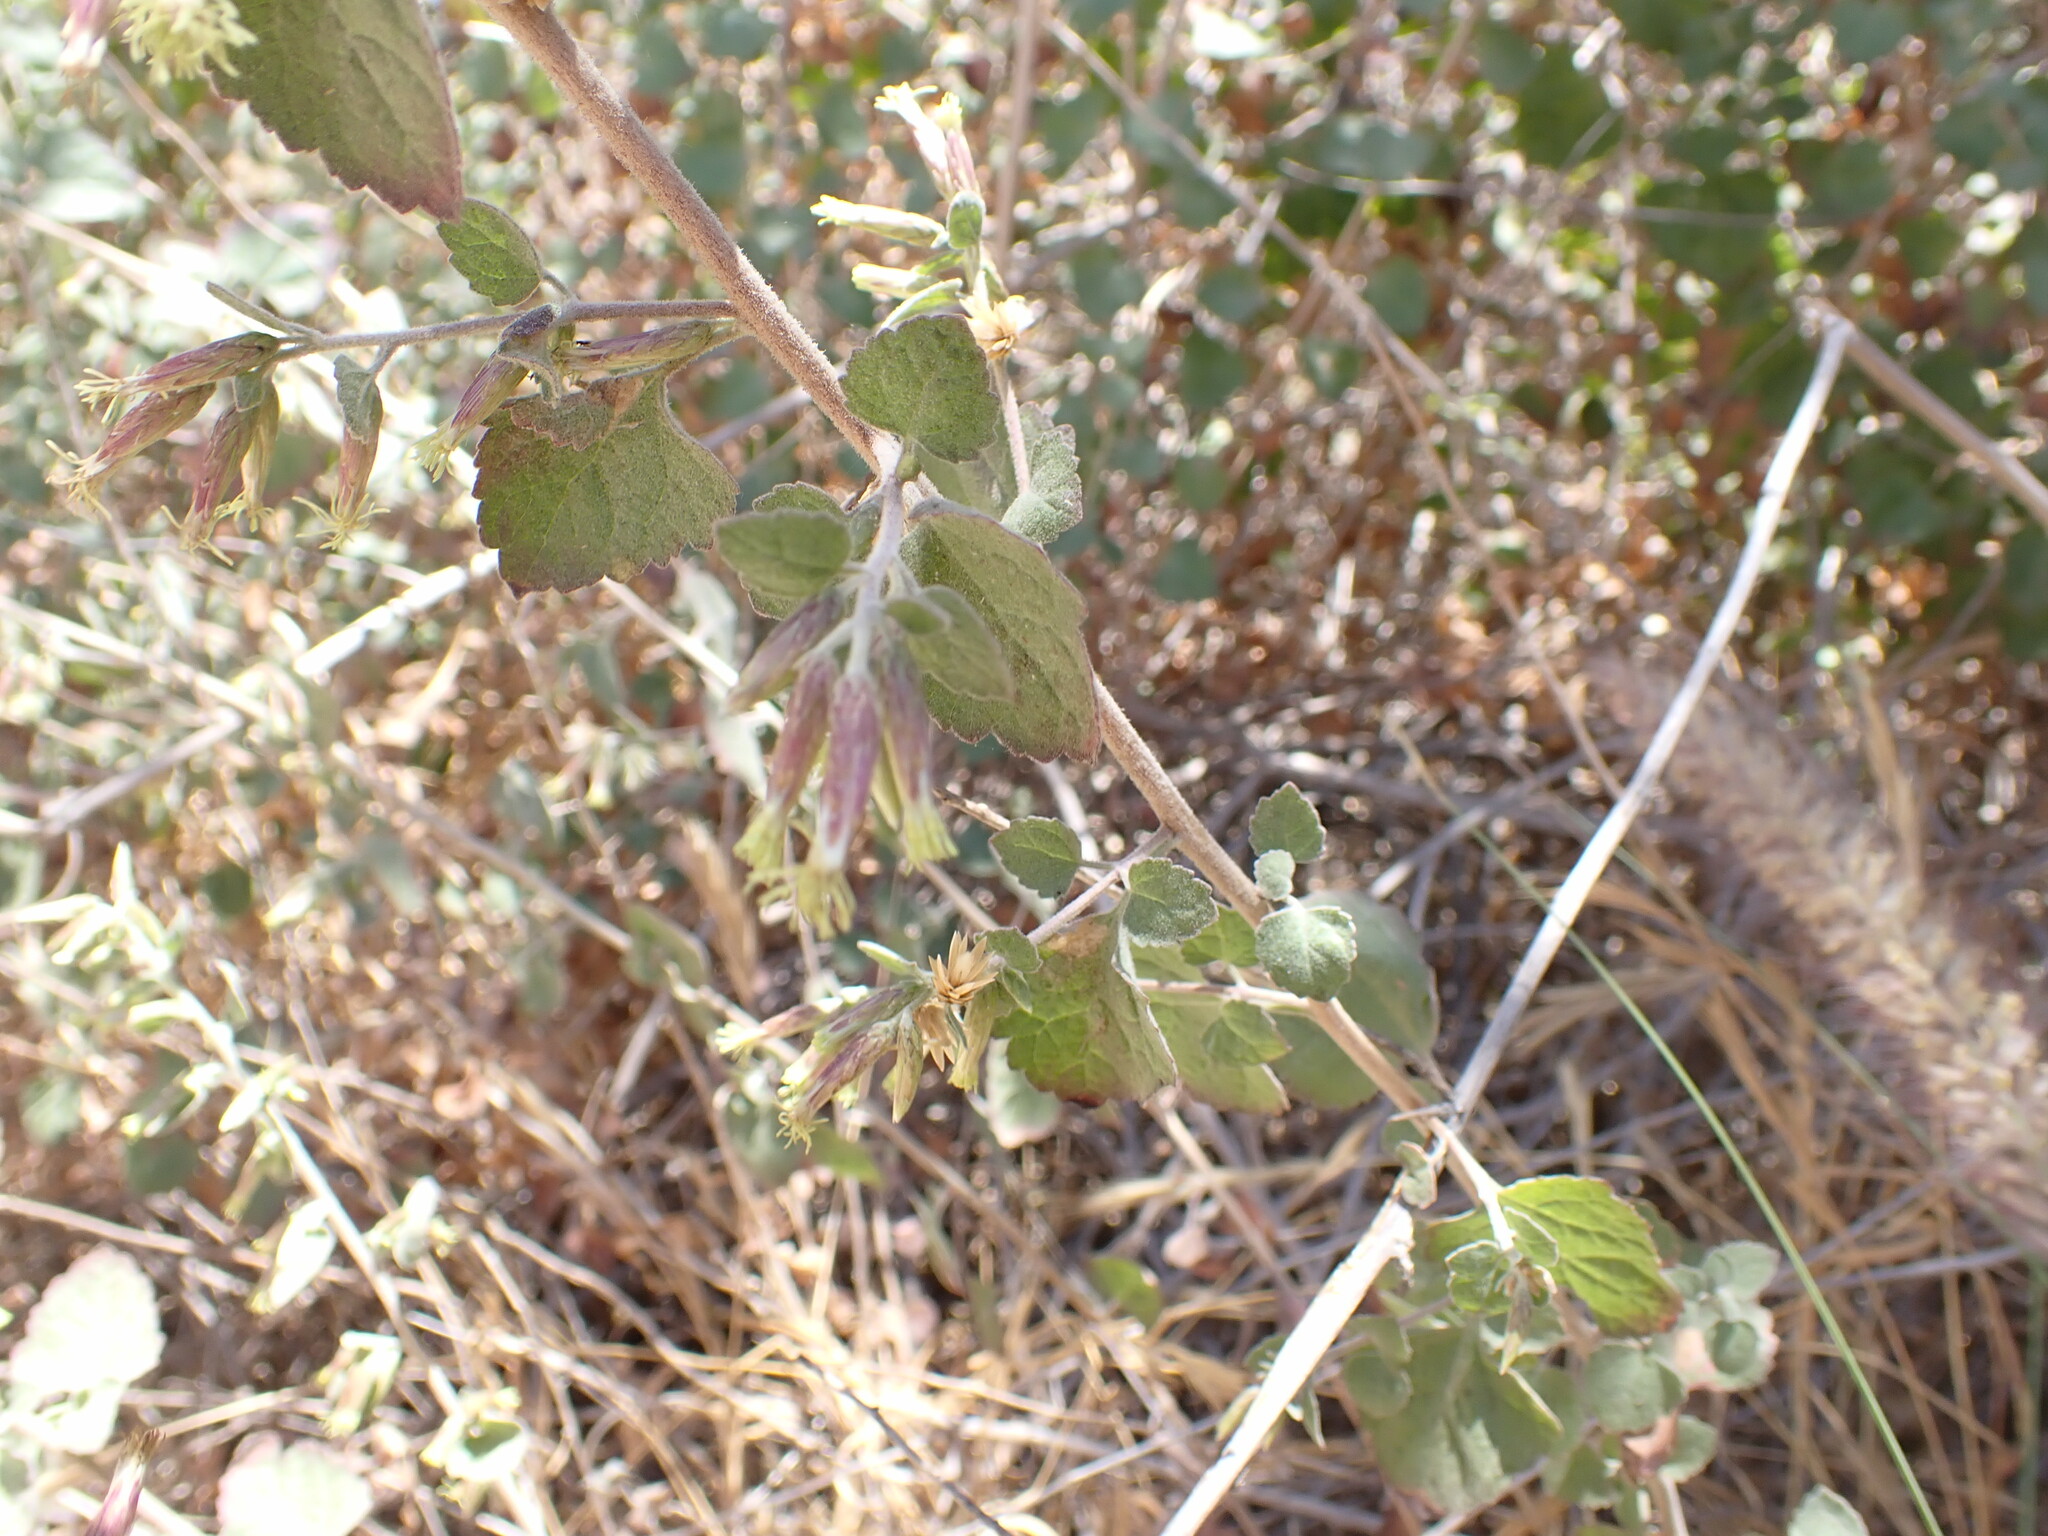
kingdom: Plantae
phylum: Tracheophyta
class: Magnoliopsida
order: Asterales
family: Asteraceae
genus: Brickellia
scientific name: Brickellia californica
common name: California brickellbush
